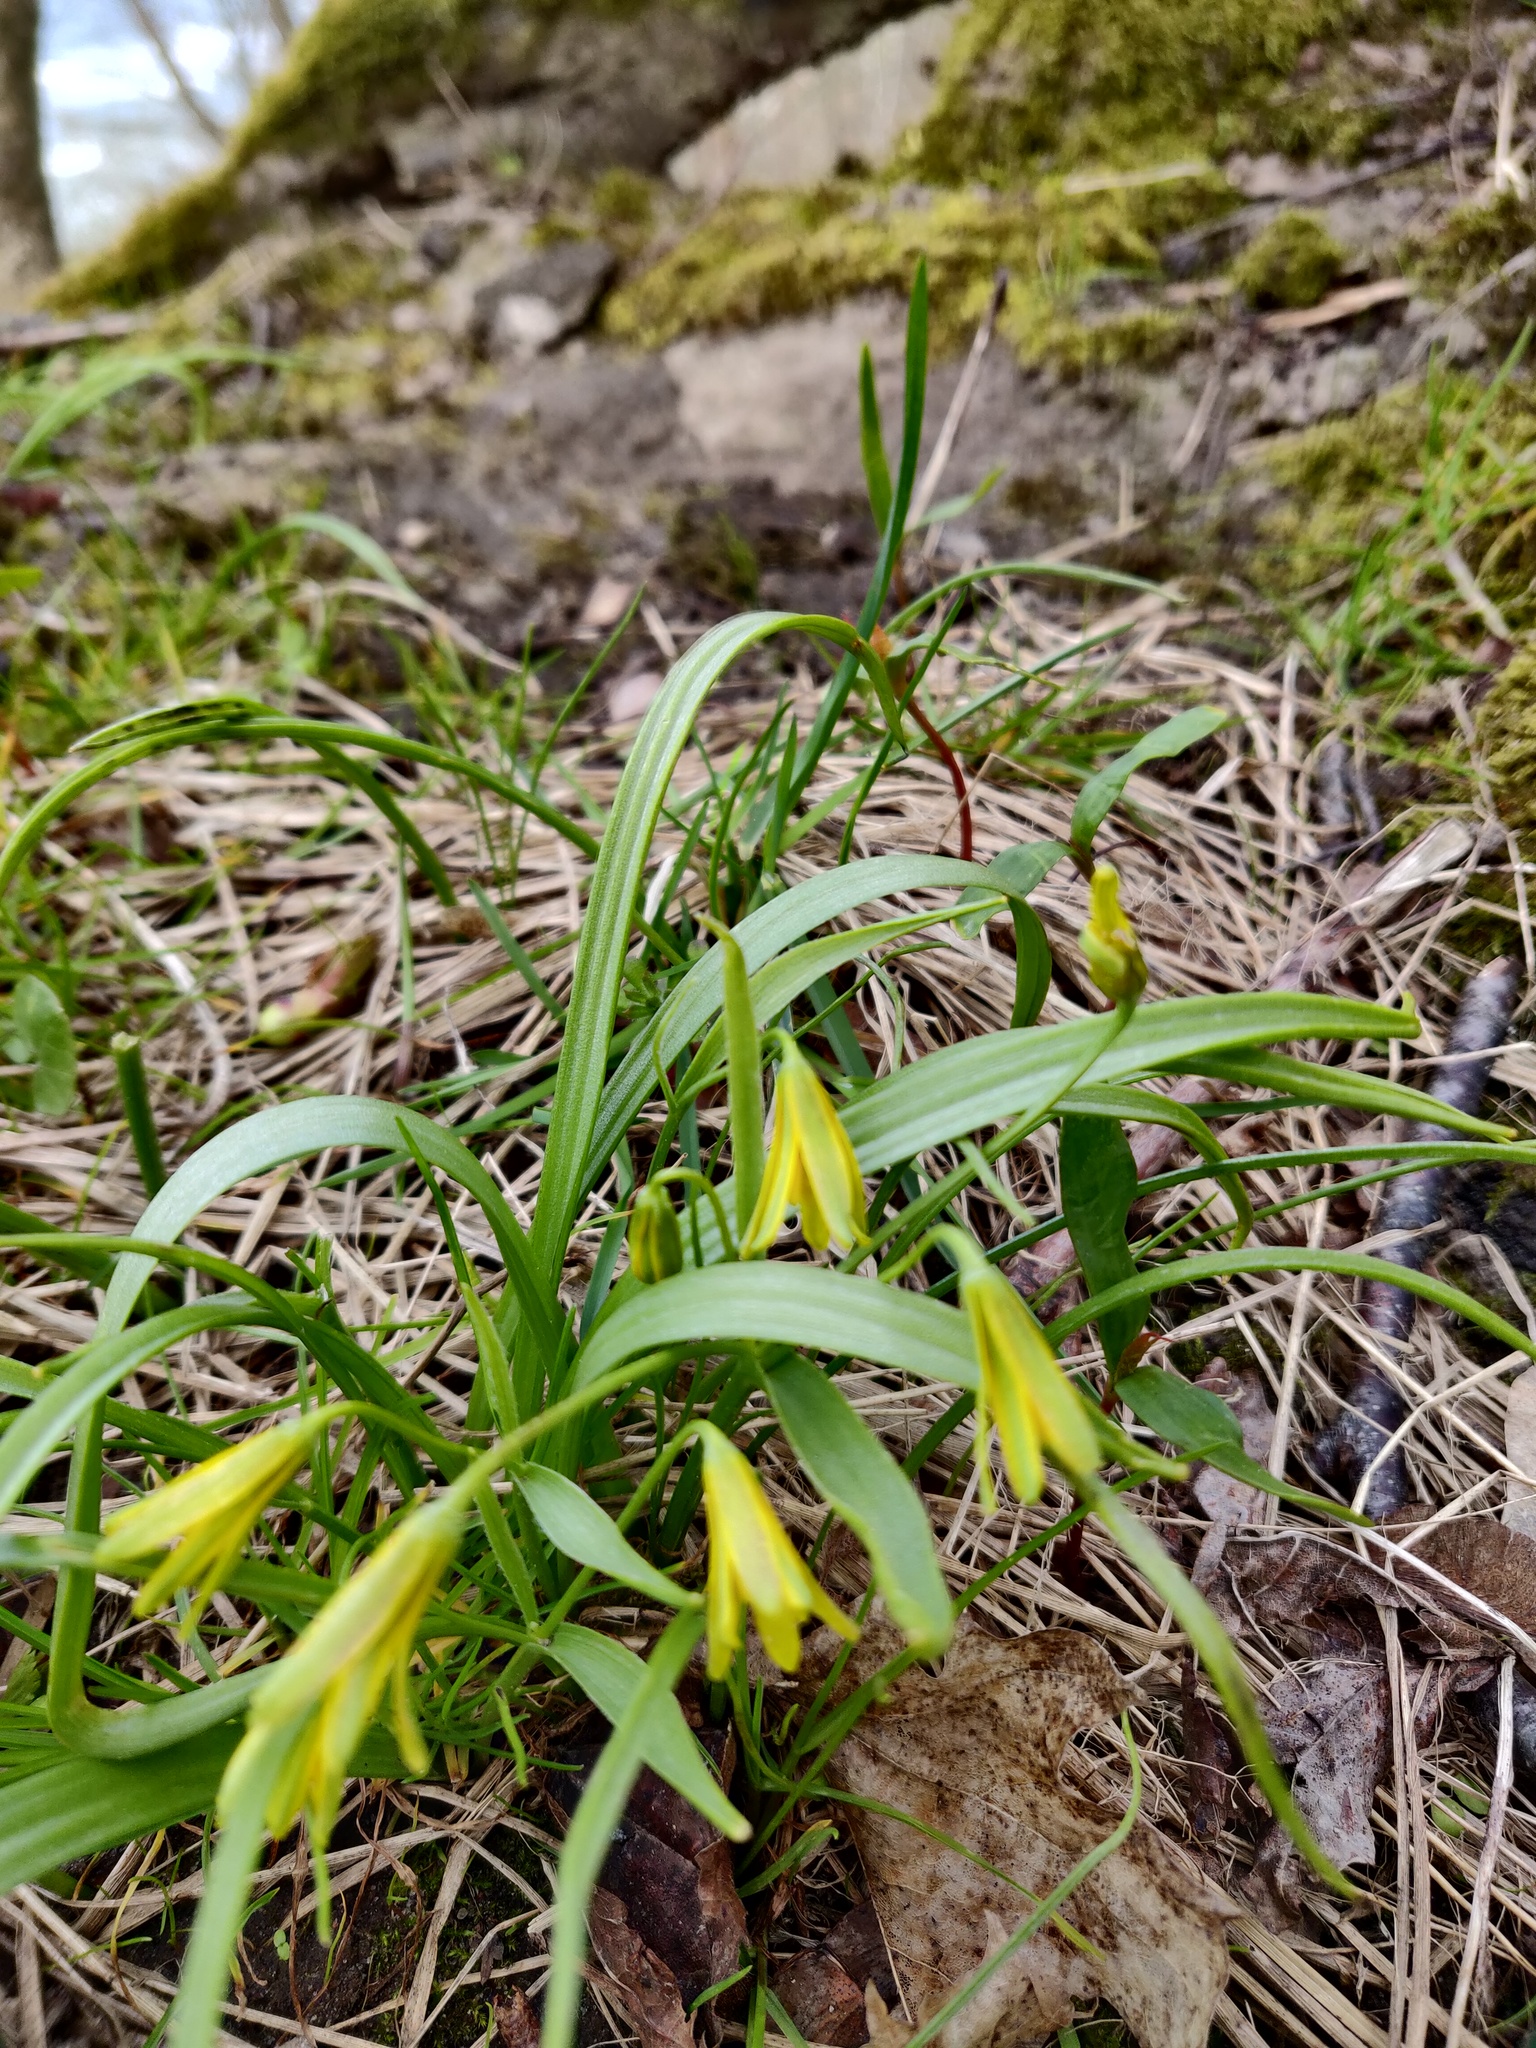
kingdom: Plantae
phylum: Tracheophyta
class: Liliopsida
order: Liliales
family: Liliaceae
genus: Gagea
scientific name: Gagea lutea
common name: Yellow star-of-bethlehem
